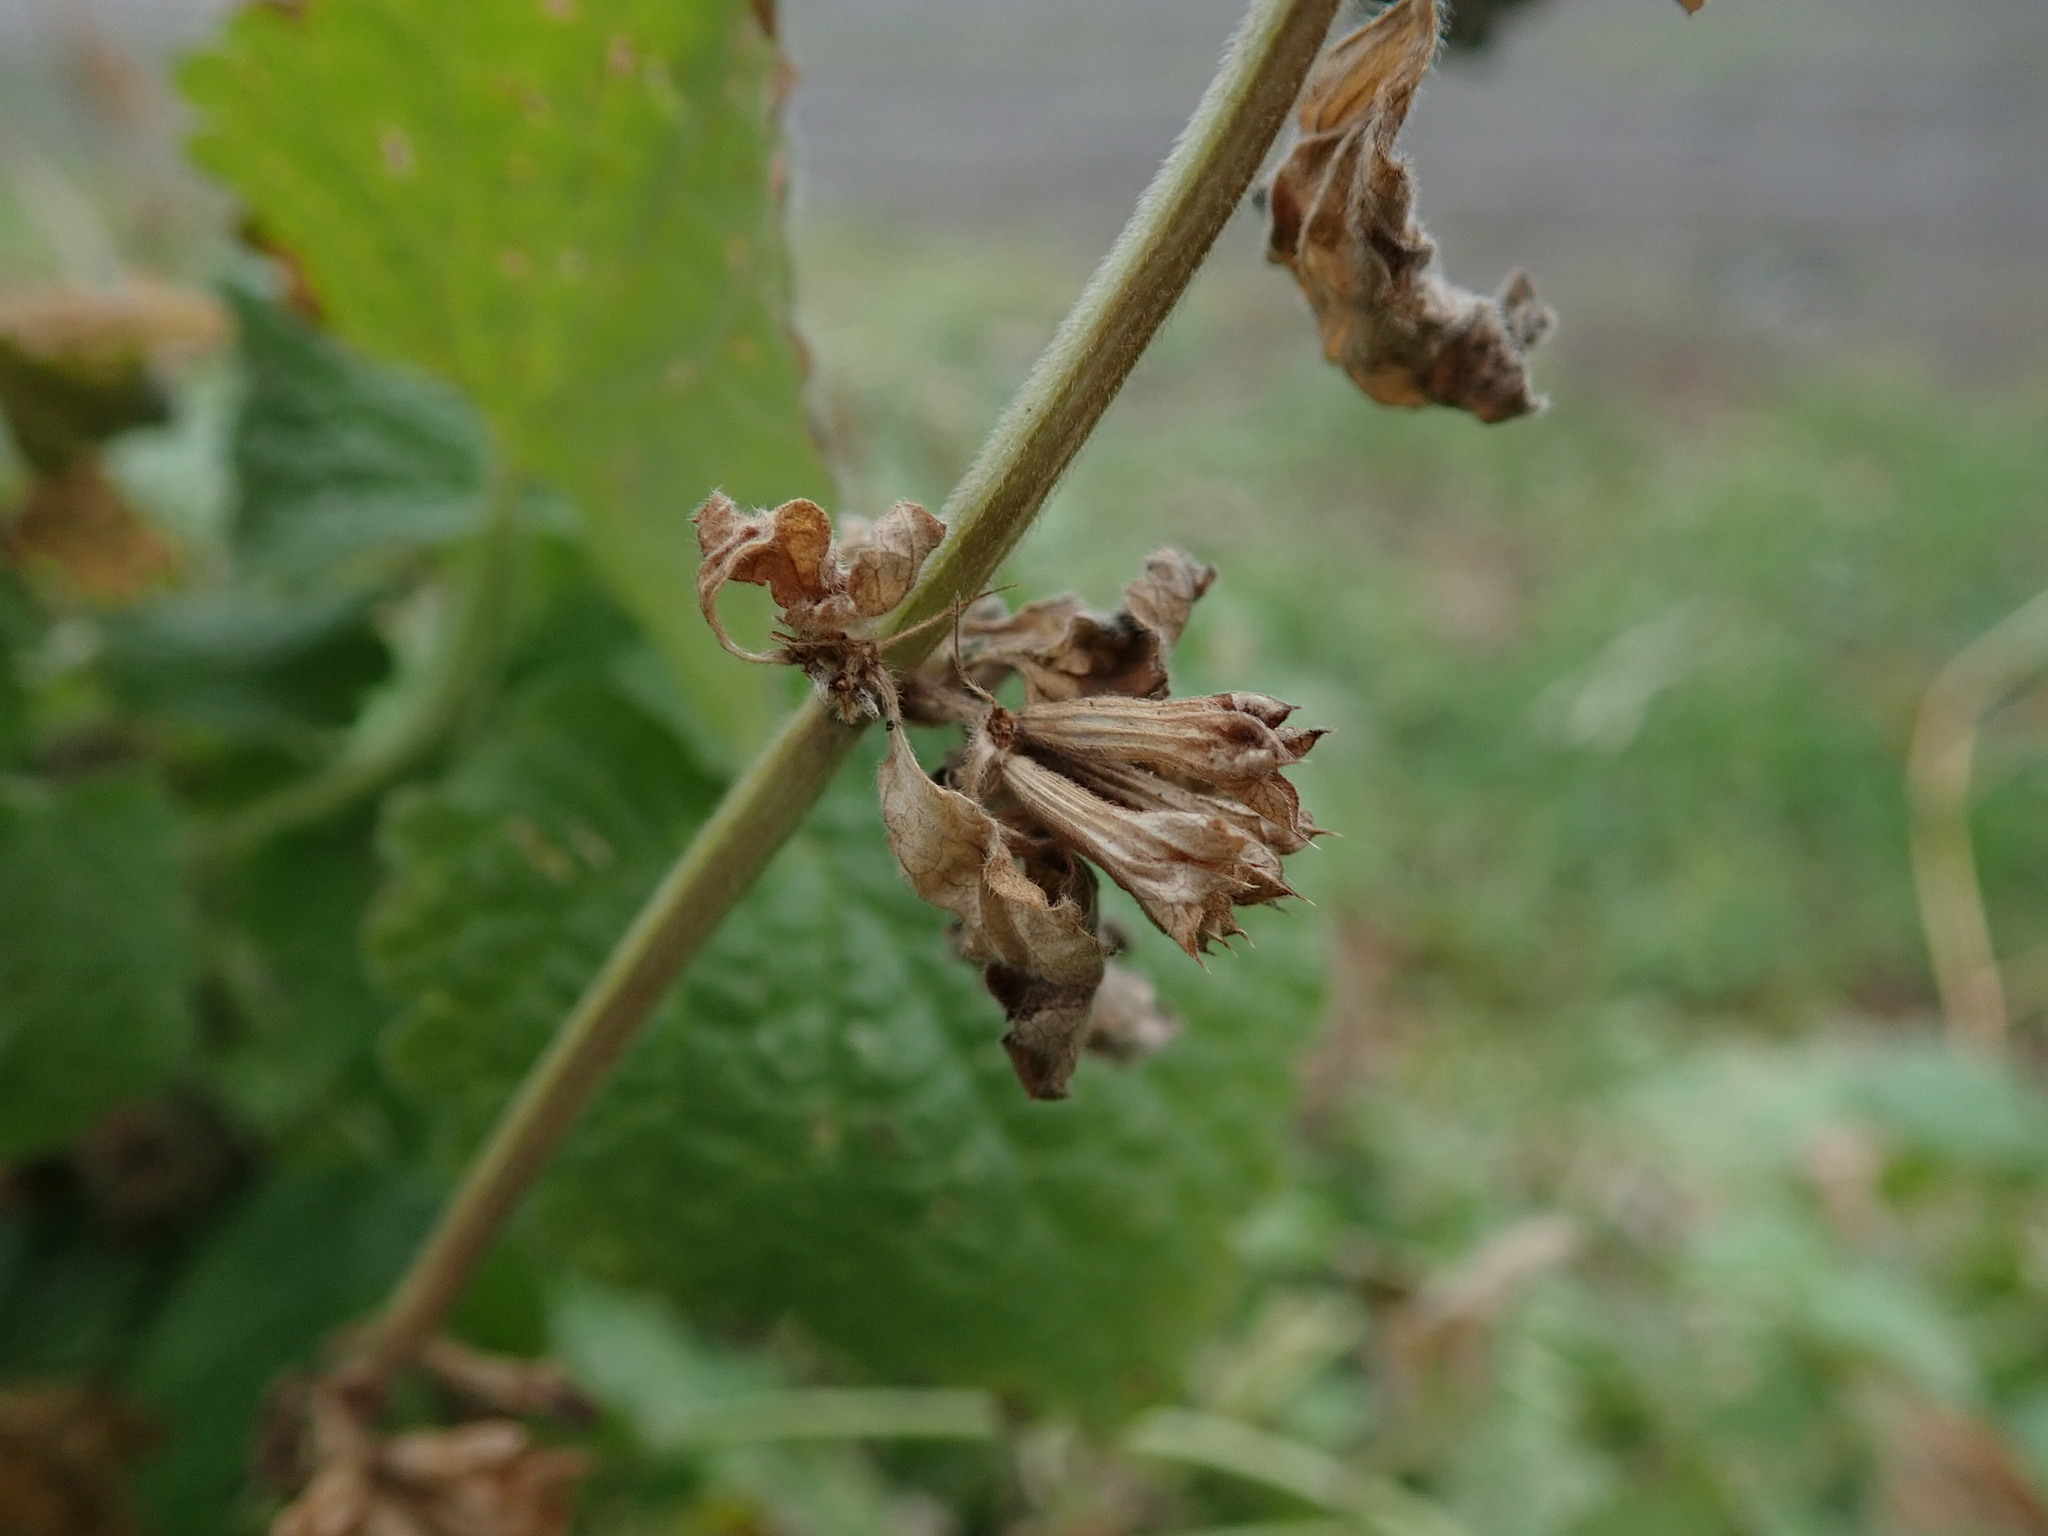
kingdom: Plantae
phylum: Tracheophyta
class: Magnoliopsida
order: Lamiales
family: Lamiaceae
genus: Ballota
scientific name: Ballota nigra
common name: Black horehound
